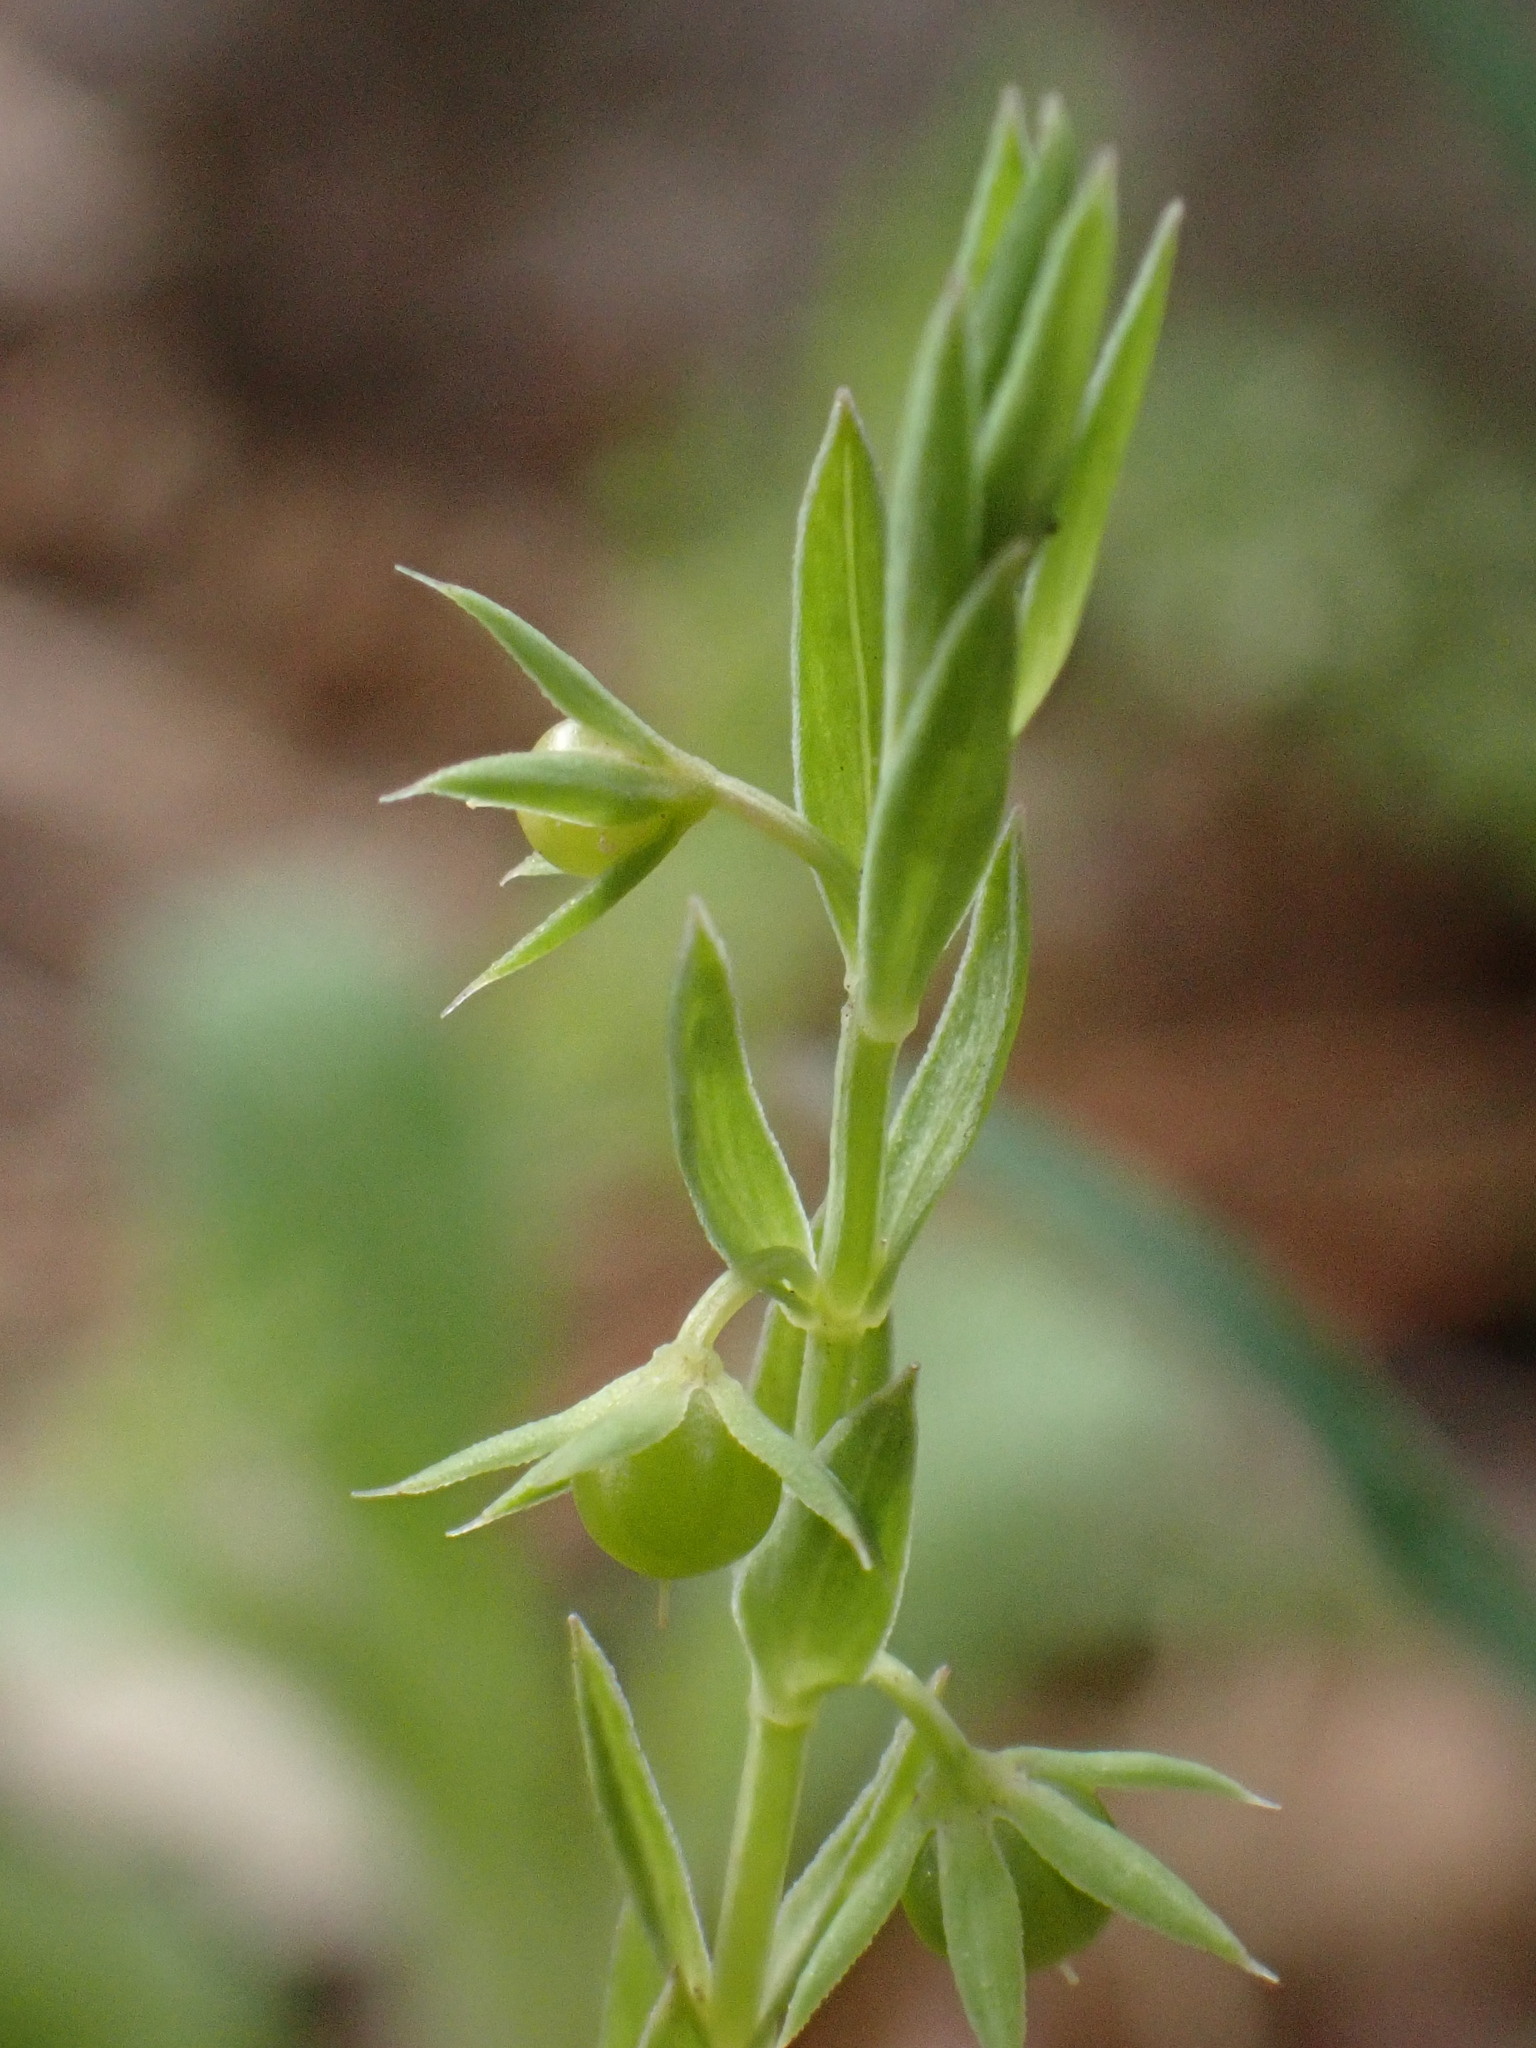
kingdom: Plantae
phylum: Tracheophyta
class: Magnoliopsida
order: Ericales
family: Primulaceae
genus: Lysimachia
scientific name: Lysimachia linum-stellatum
